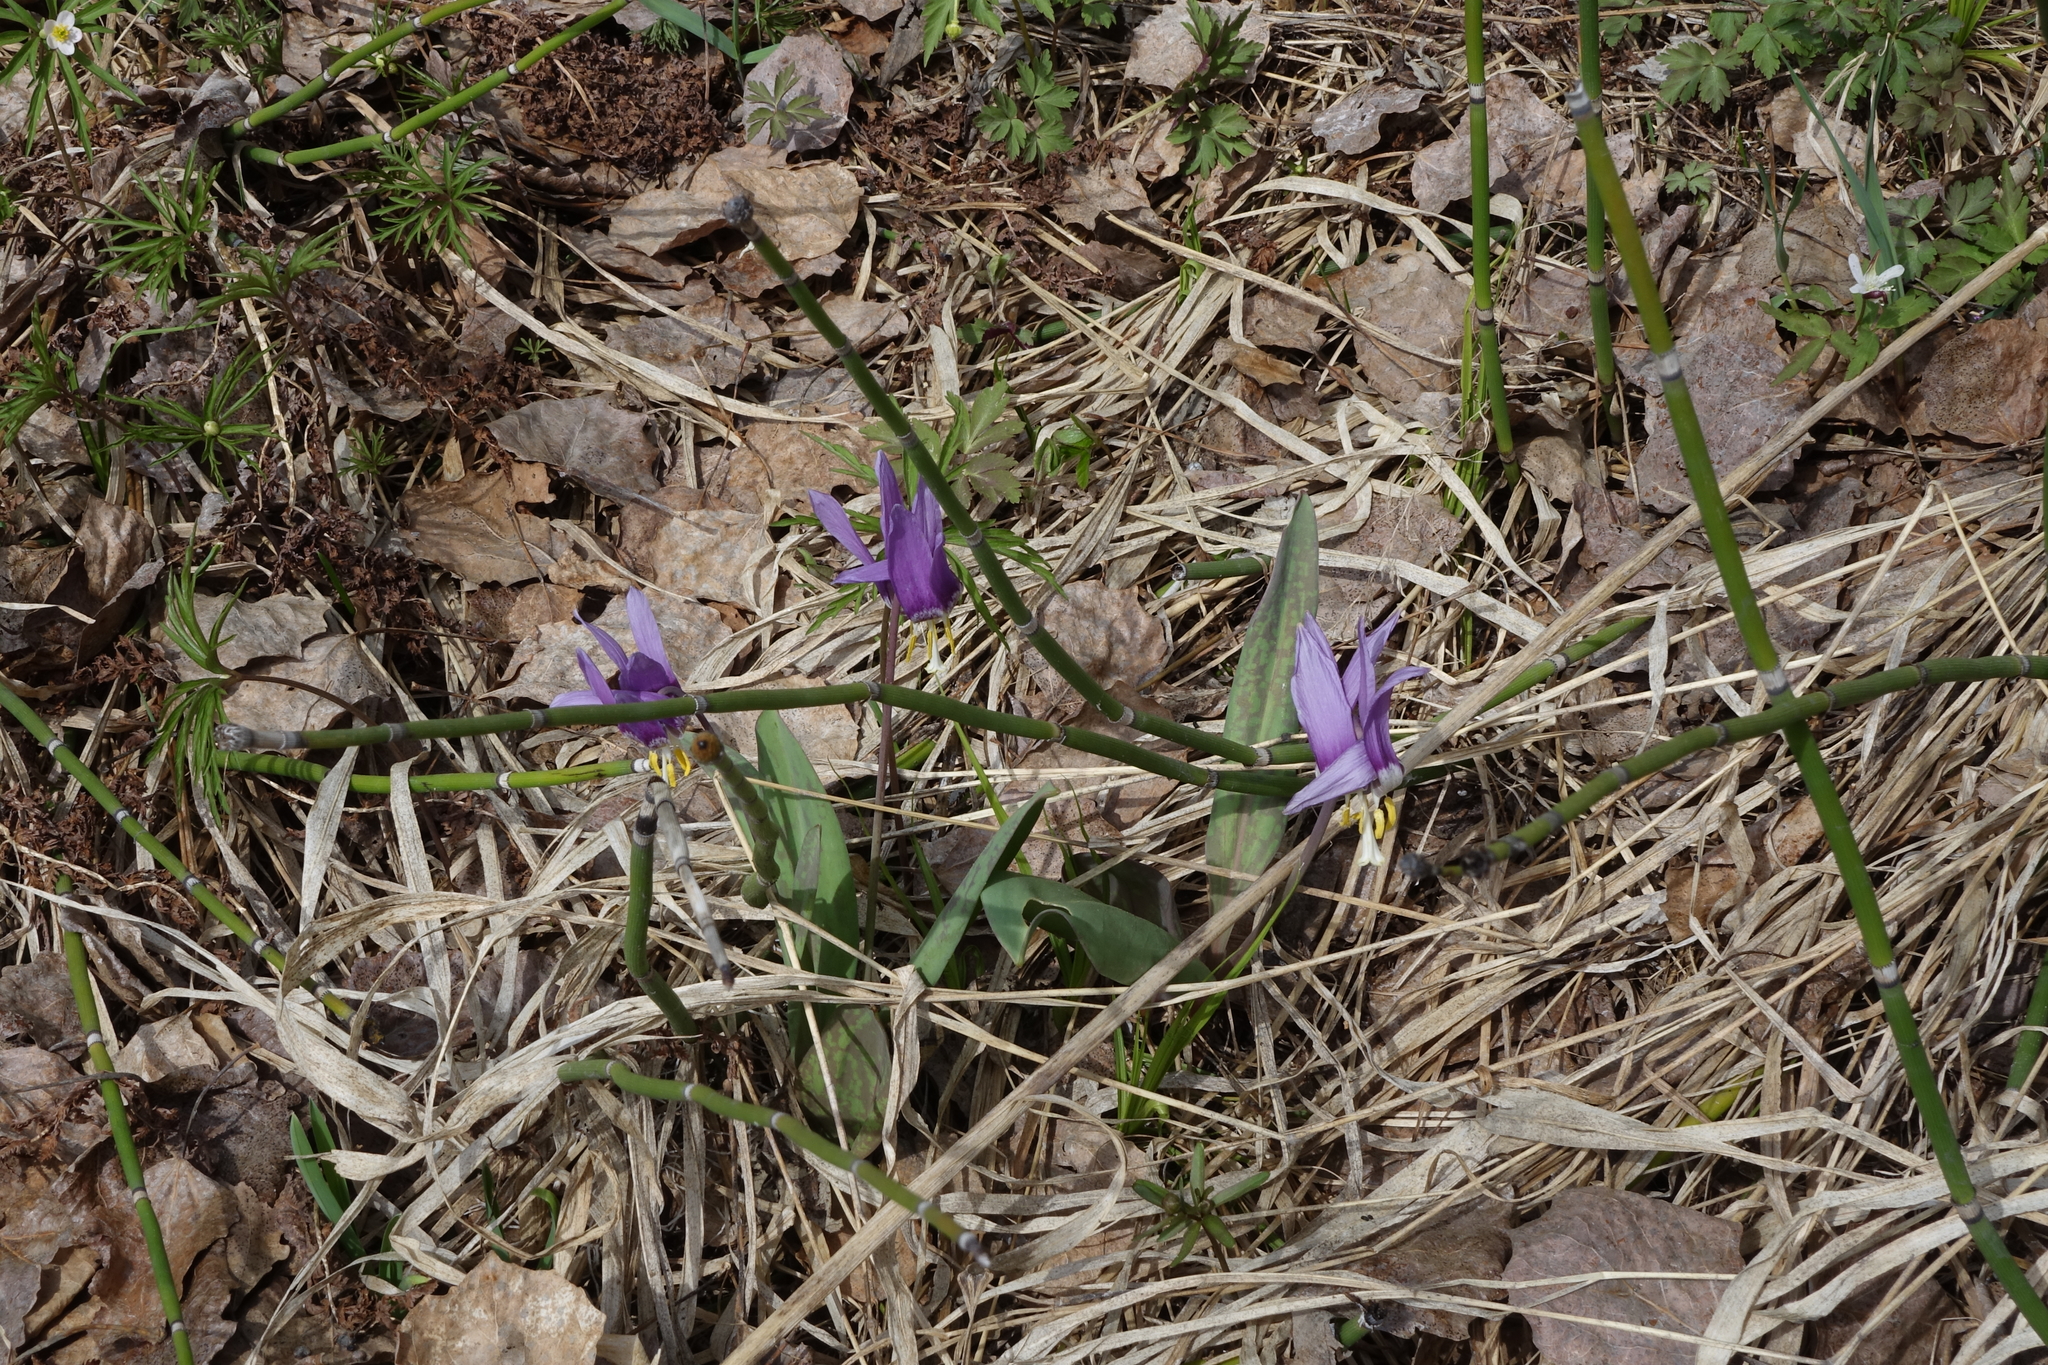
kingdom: Plantae
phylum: Tracheophyta
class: Liliopsida
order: Liliales
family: Liliaceae
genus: Erythronium
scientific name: Erythronium sibiricum
